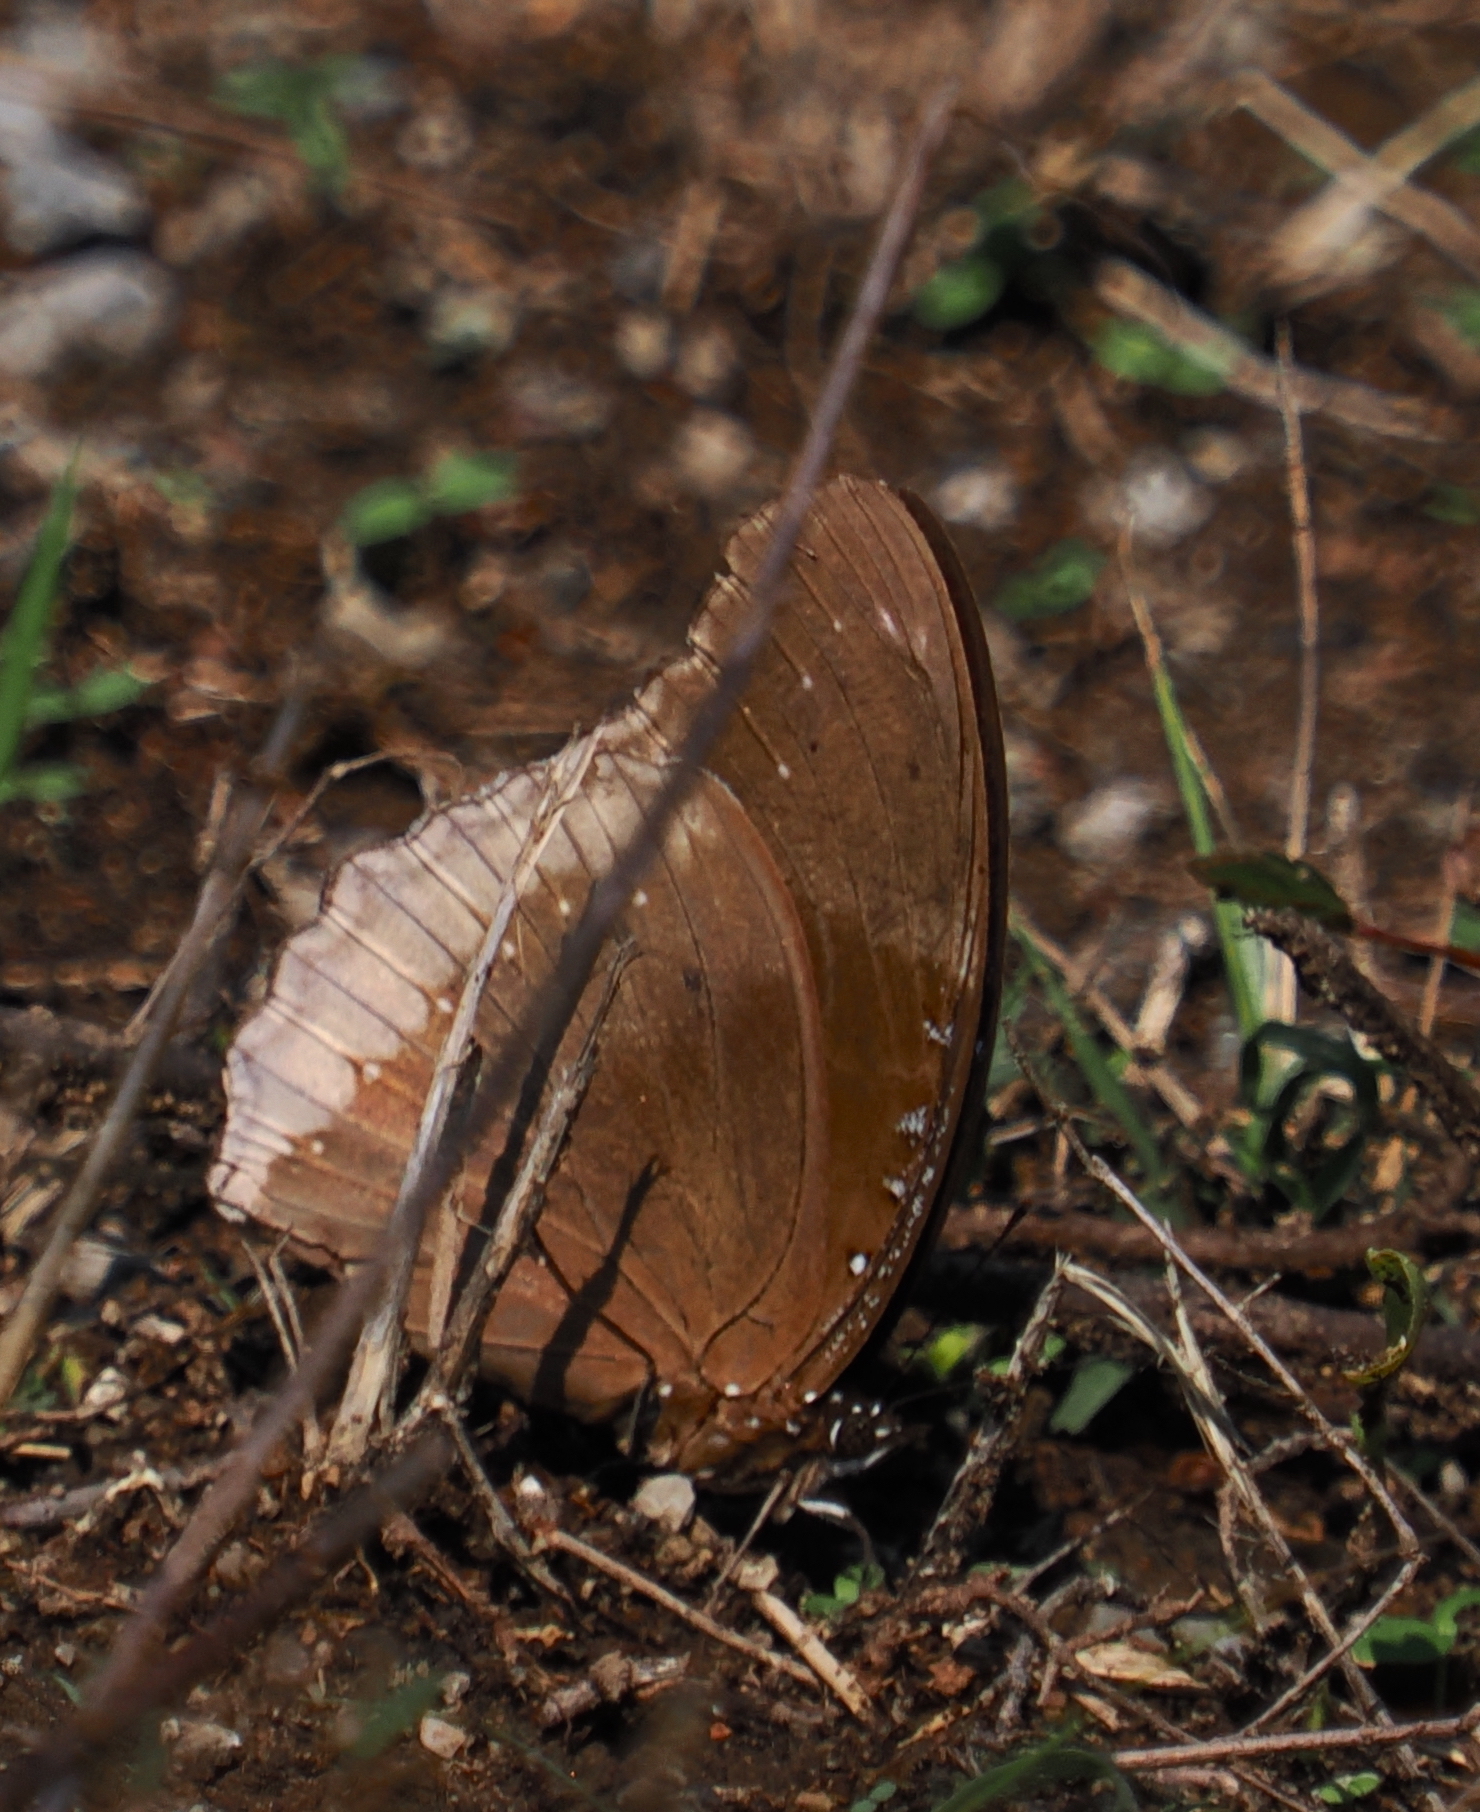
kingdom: Animalia
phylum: Arthropoda
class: Insecta
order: Lepidoptera
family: Nymphalidae
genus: Hypolimnas
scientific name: Hypolimnas bolina
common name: Great eggfly
